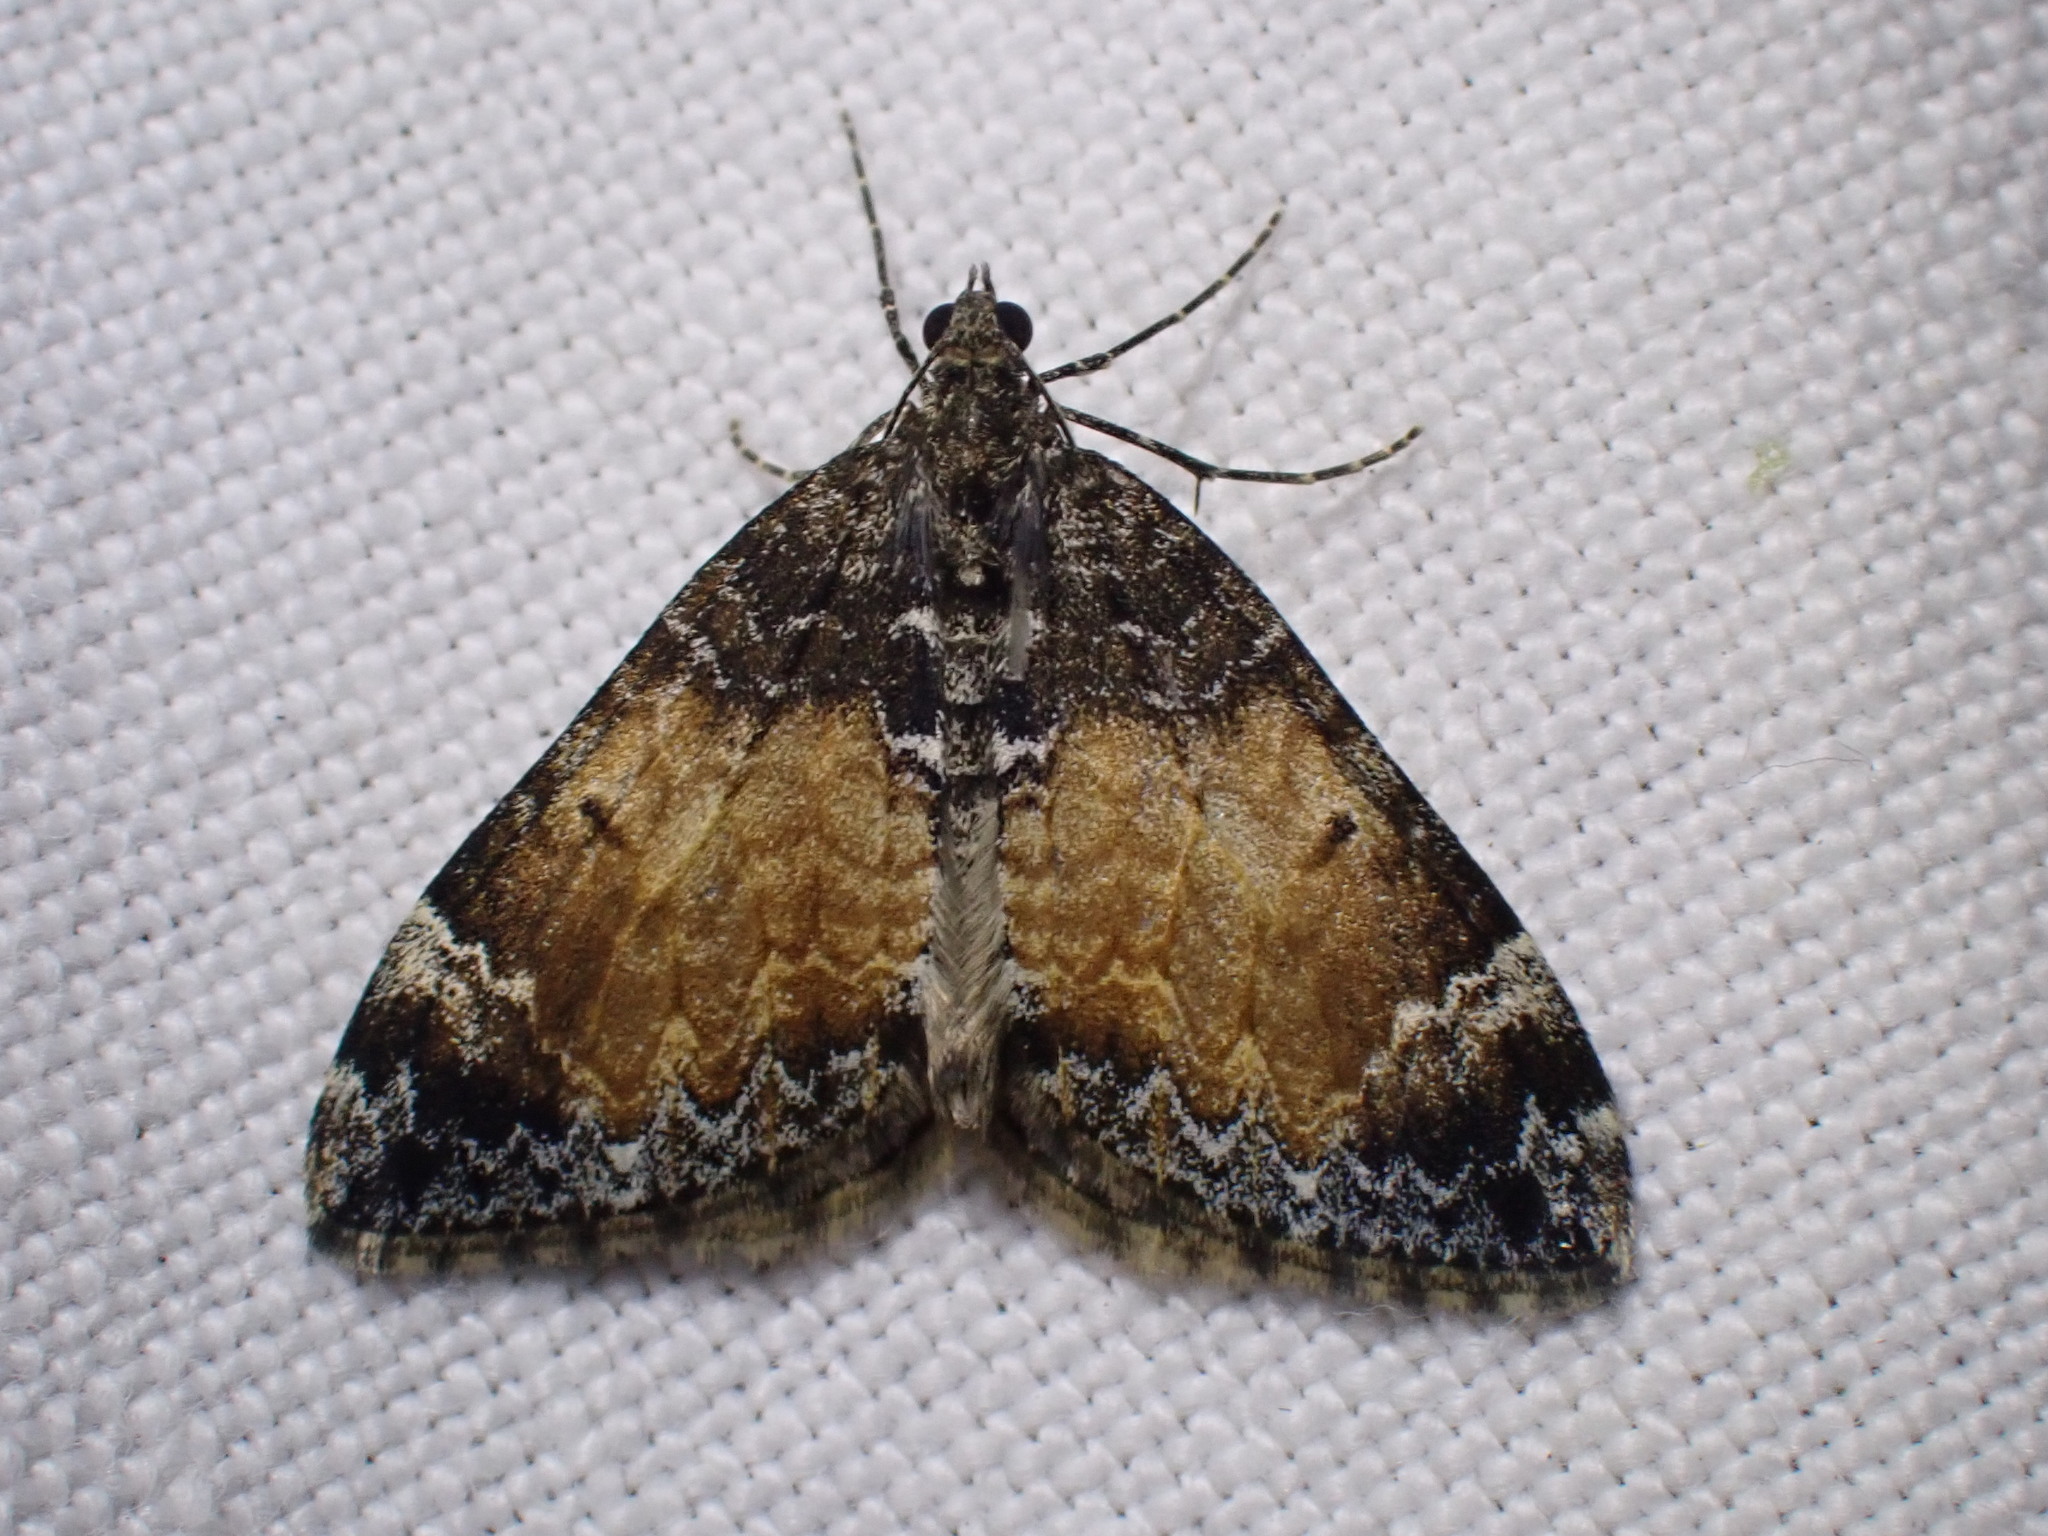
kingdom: Animalia
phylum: Arthropoda
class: Insecta
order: Lepidoptera
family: Geometridae
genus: Dysstroma
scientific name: Dysstroma truncata
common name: Common marbled carpet
